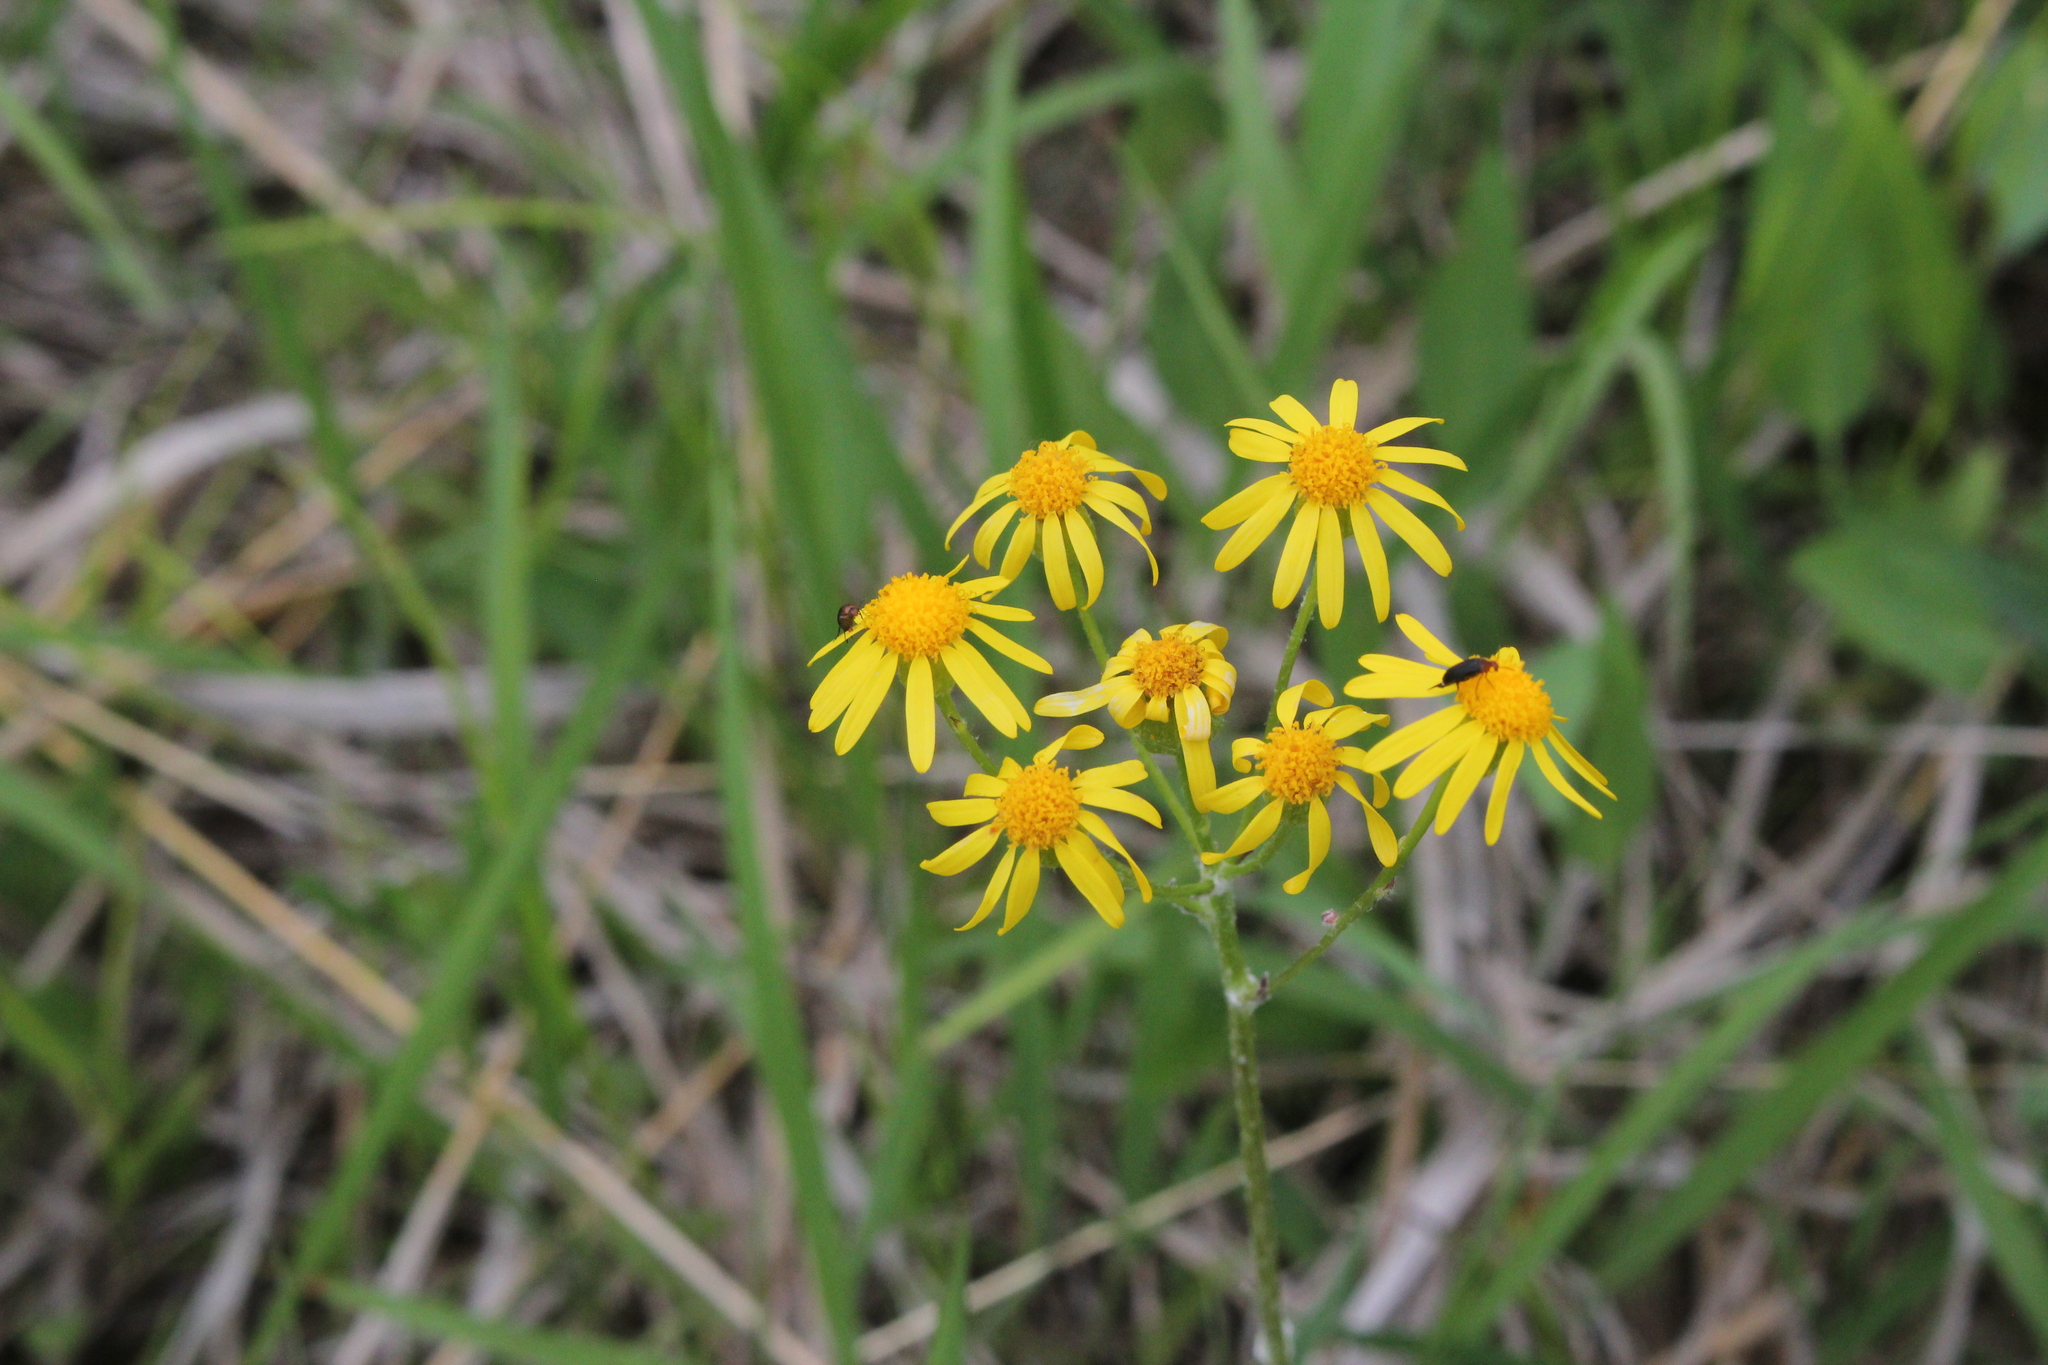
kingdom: Plantae
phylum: Tracheophyta
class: Magnoliopsida
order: Asterales
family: Asteraceae
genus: Packera
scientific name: Packera paupercula
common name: Balsam groundsel
